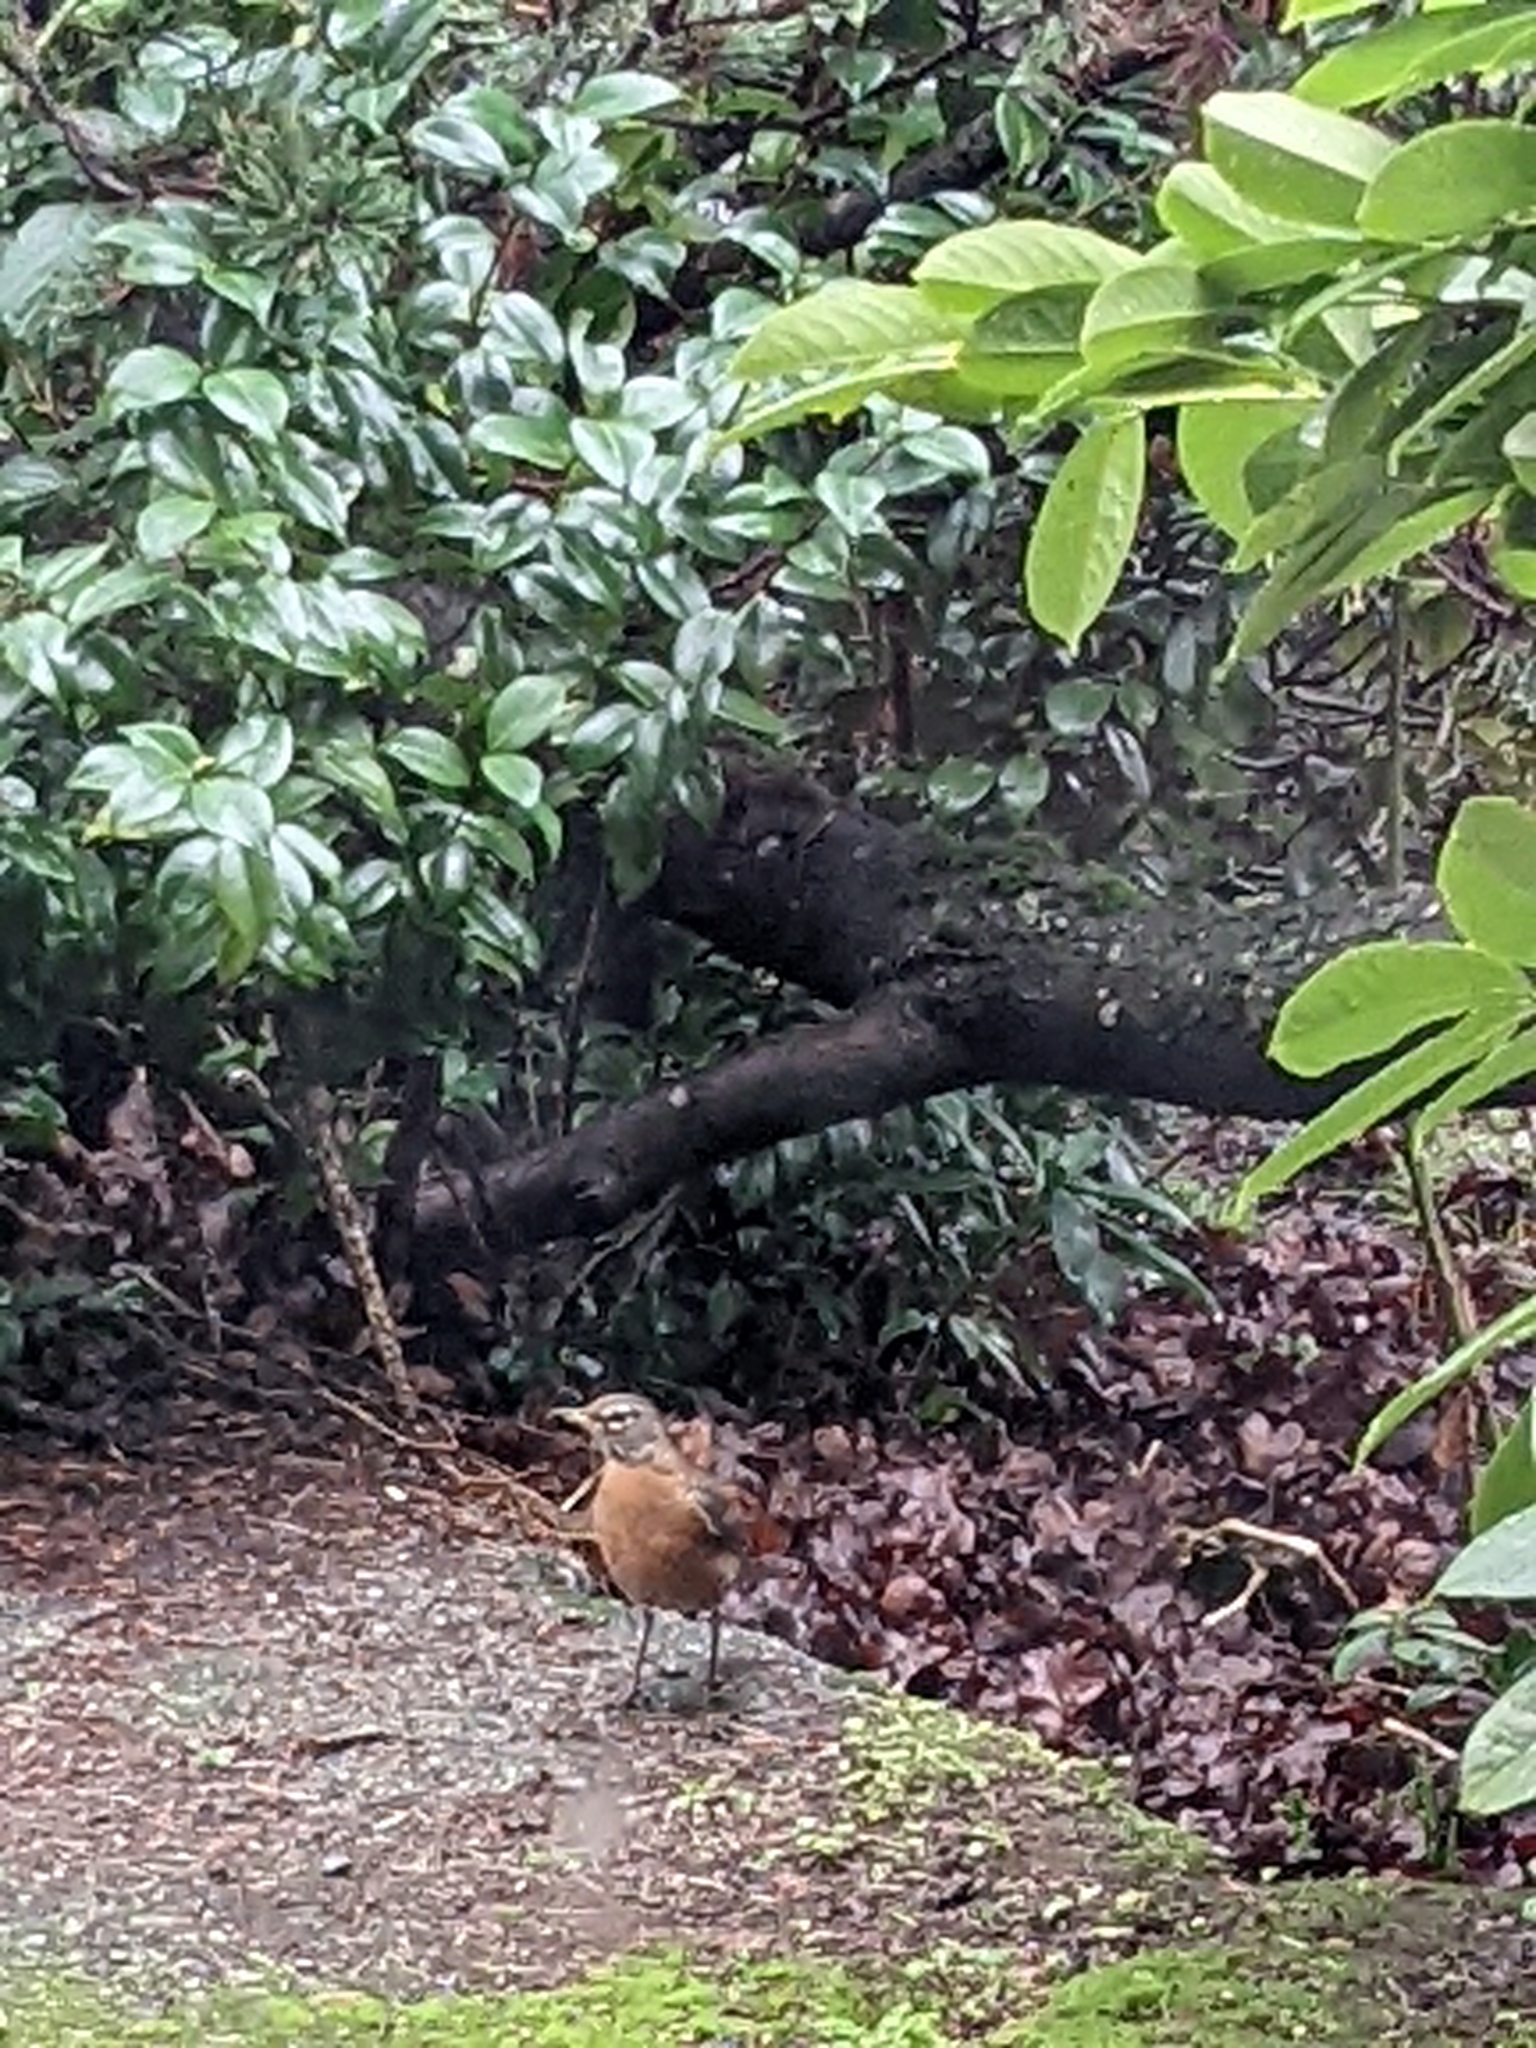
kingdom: Animalia
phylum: Chordata
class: Aves
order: Passeriformes
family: Turdidae
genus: Turdus
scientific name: Turdus migratorius
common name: American robin
